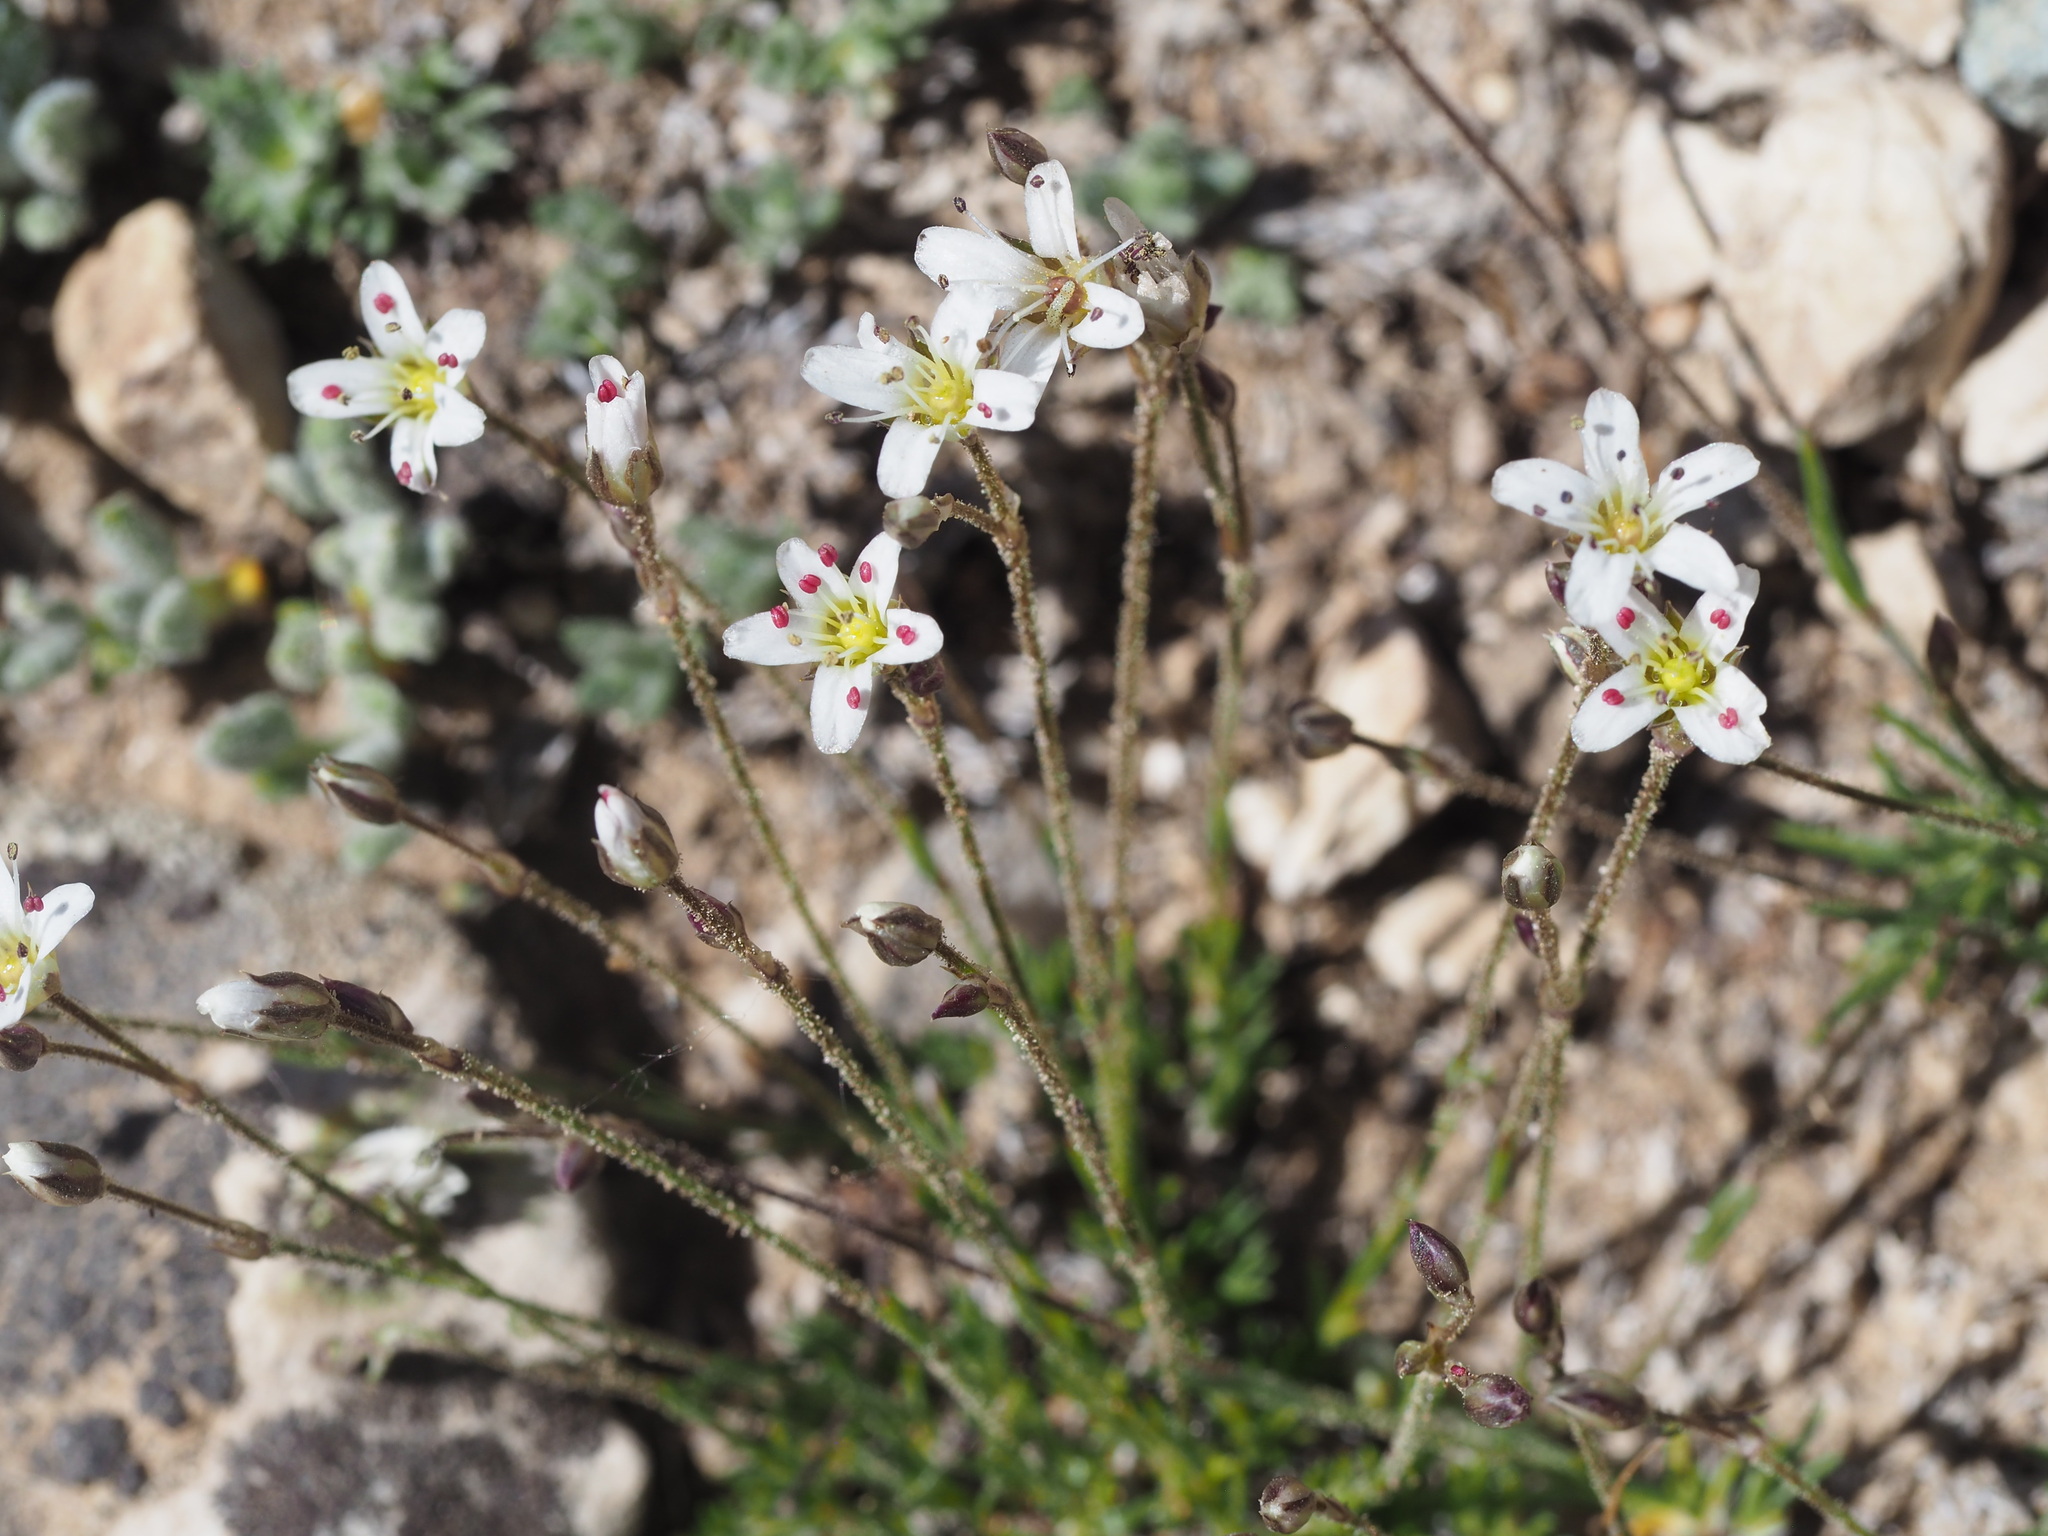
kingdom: Plantae
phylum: Tracheophyta
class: Magnoliopsida
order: Caryophyllales
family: Caryophyllaceae
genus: Eremogone
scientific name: Eremogone kingii
